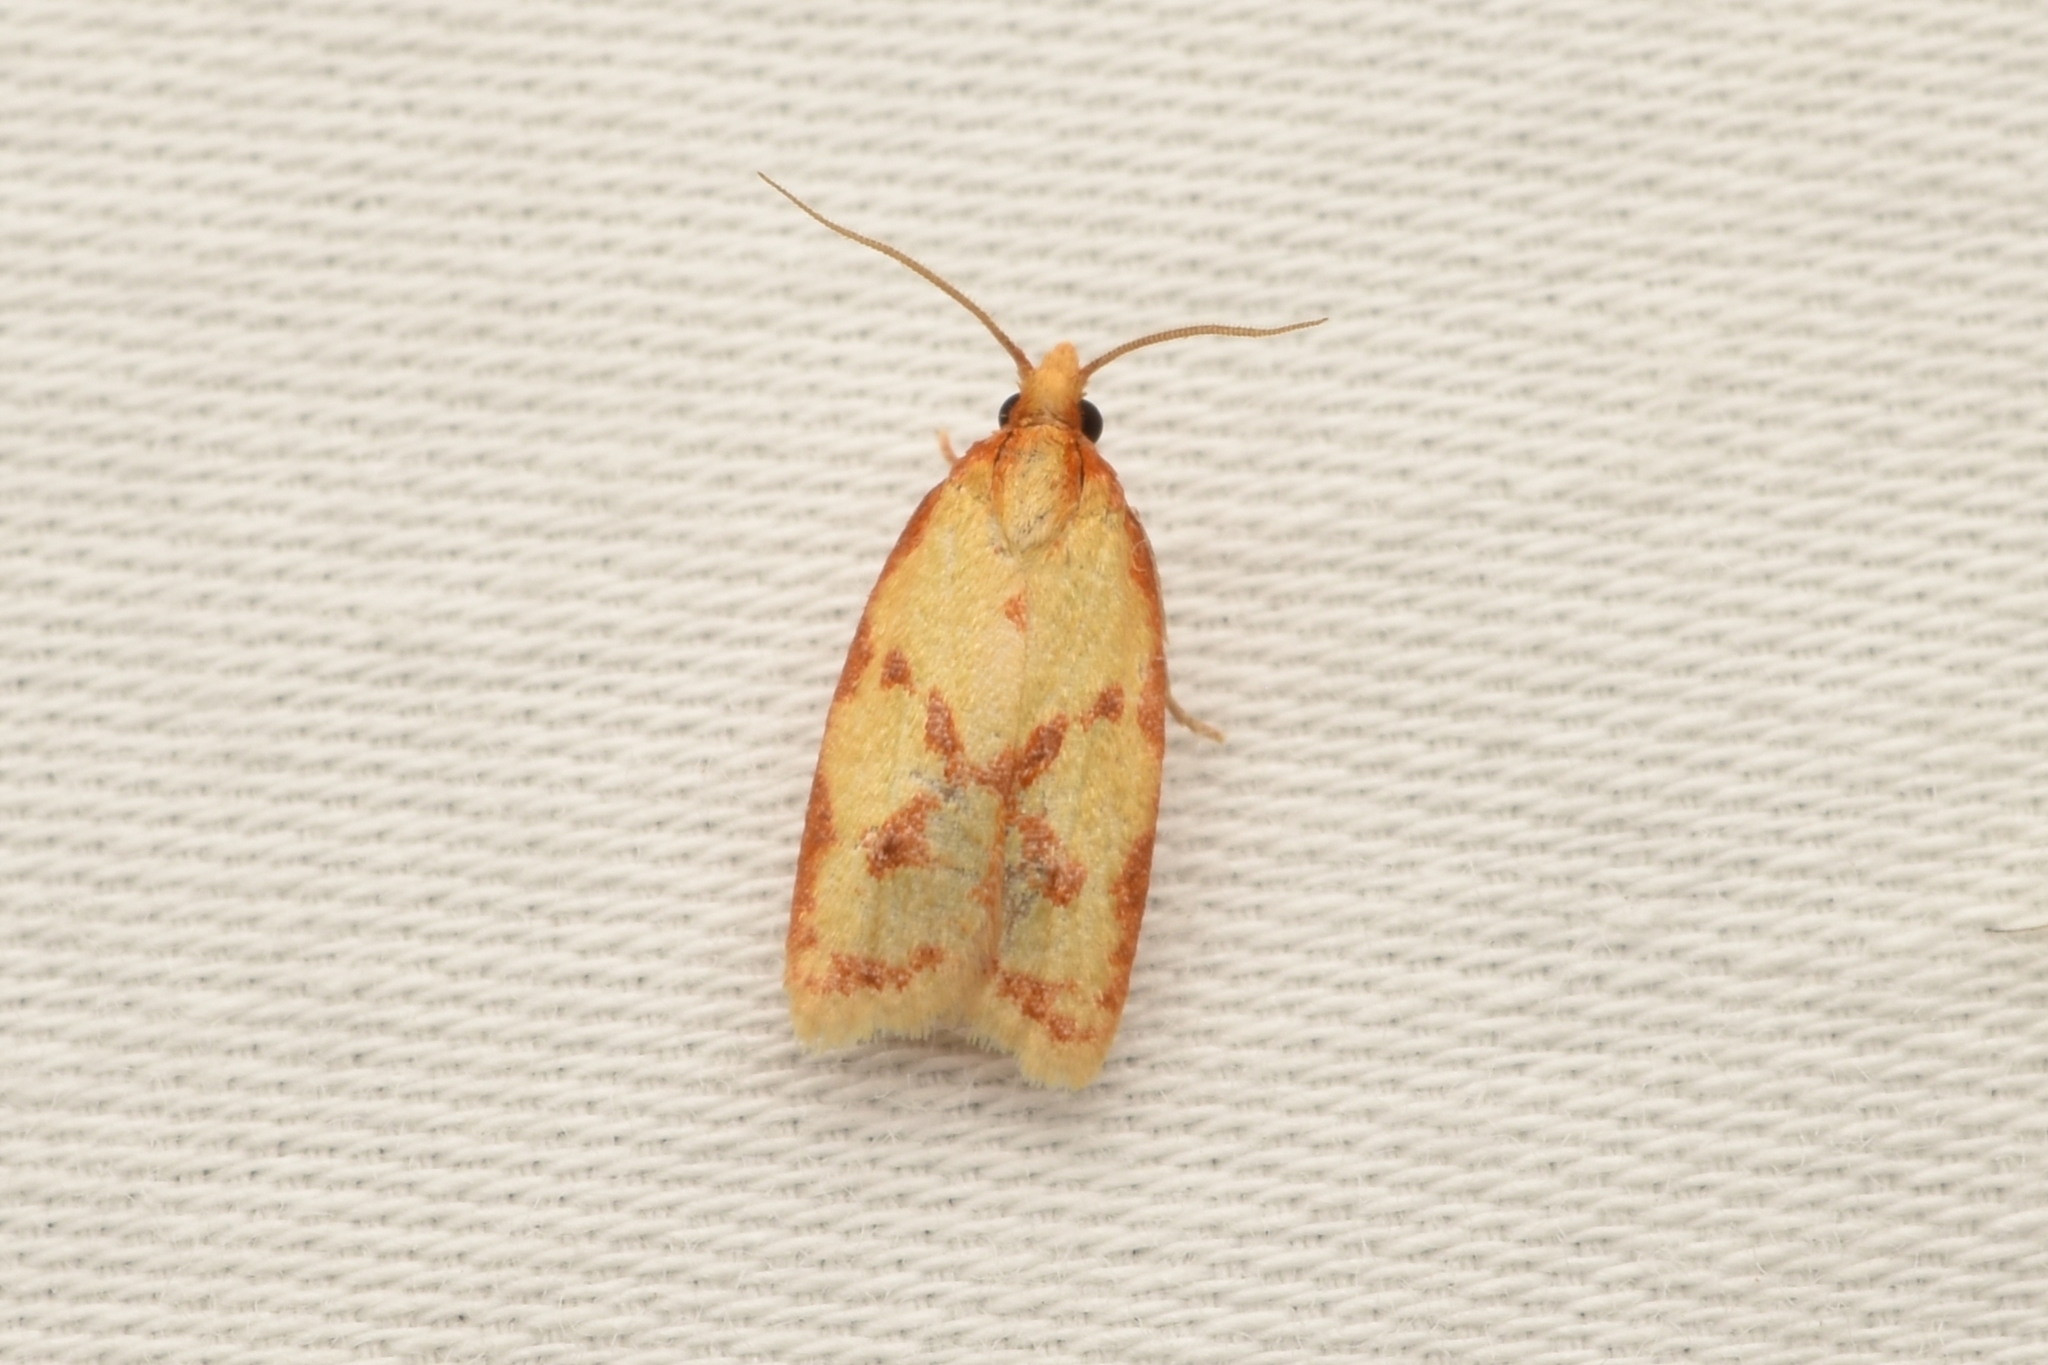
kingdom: Animalia
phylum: Arthropoda
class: Insecta
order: Lepidoptera
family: Tortricidae
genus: Sparganothis
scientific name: Sparganothis sulfureana
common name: Sparganothis fruitworm moth
